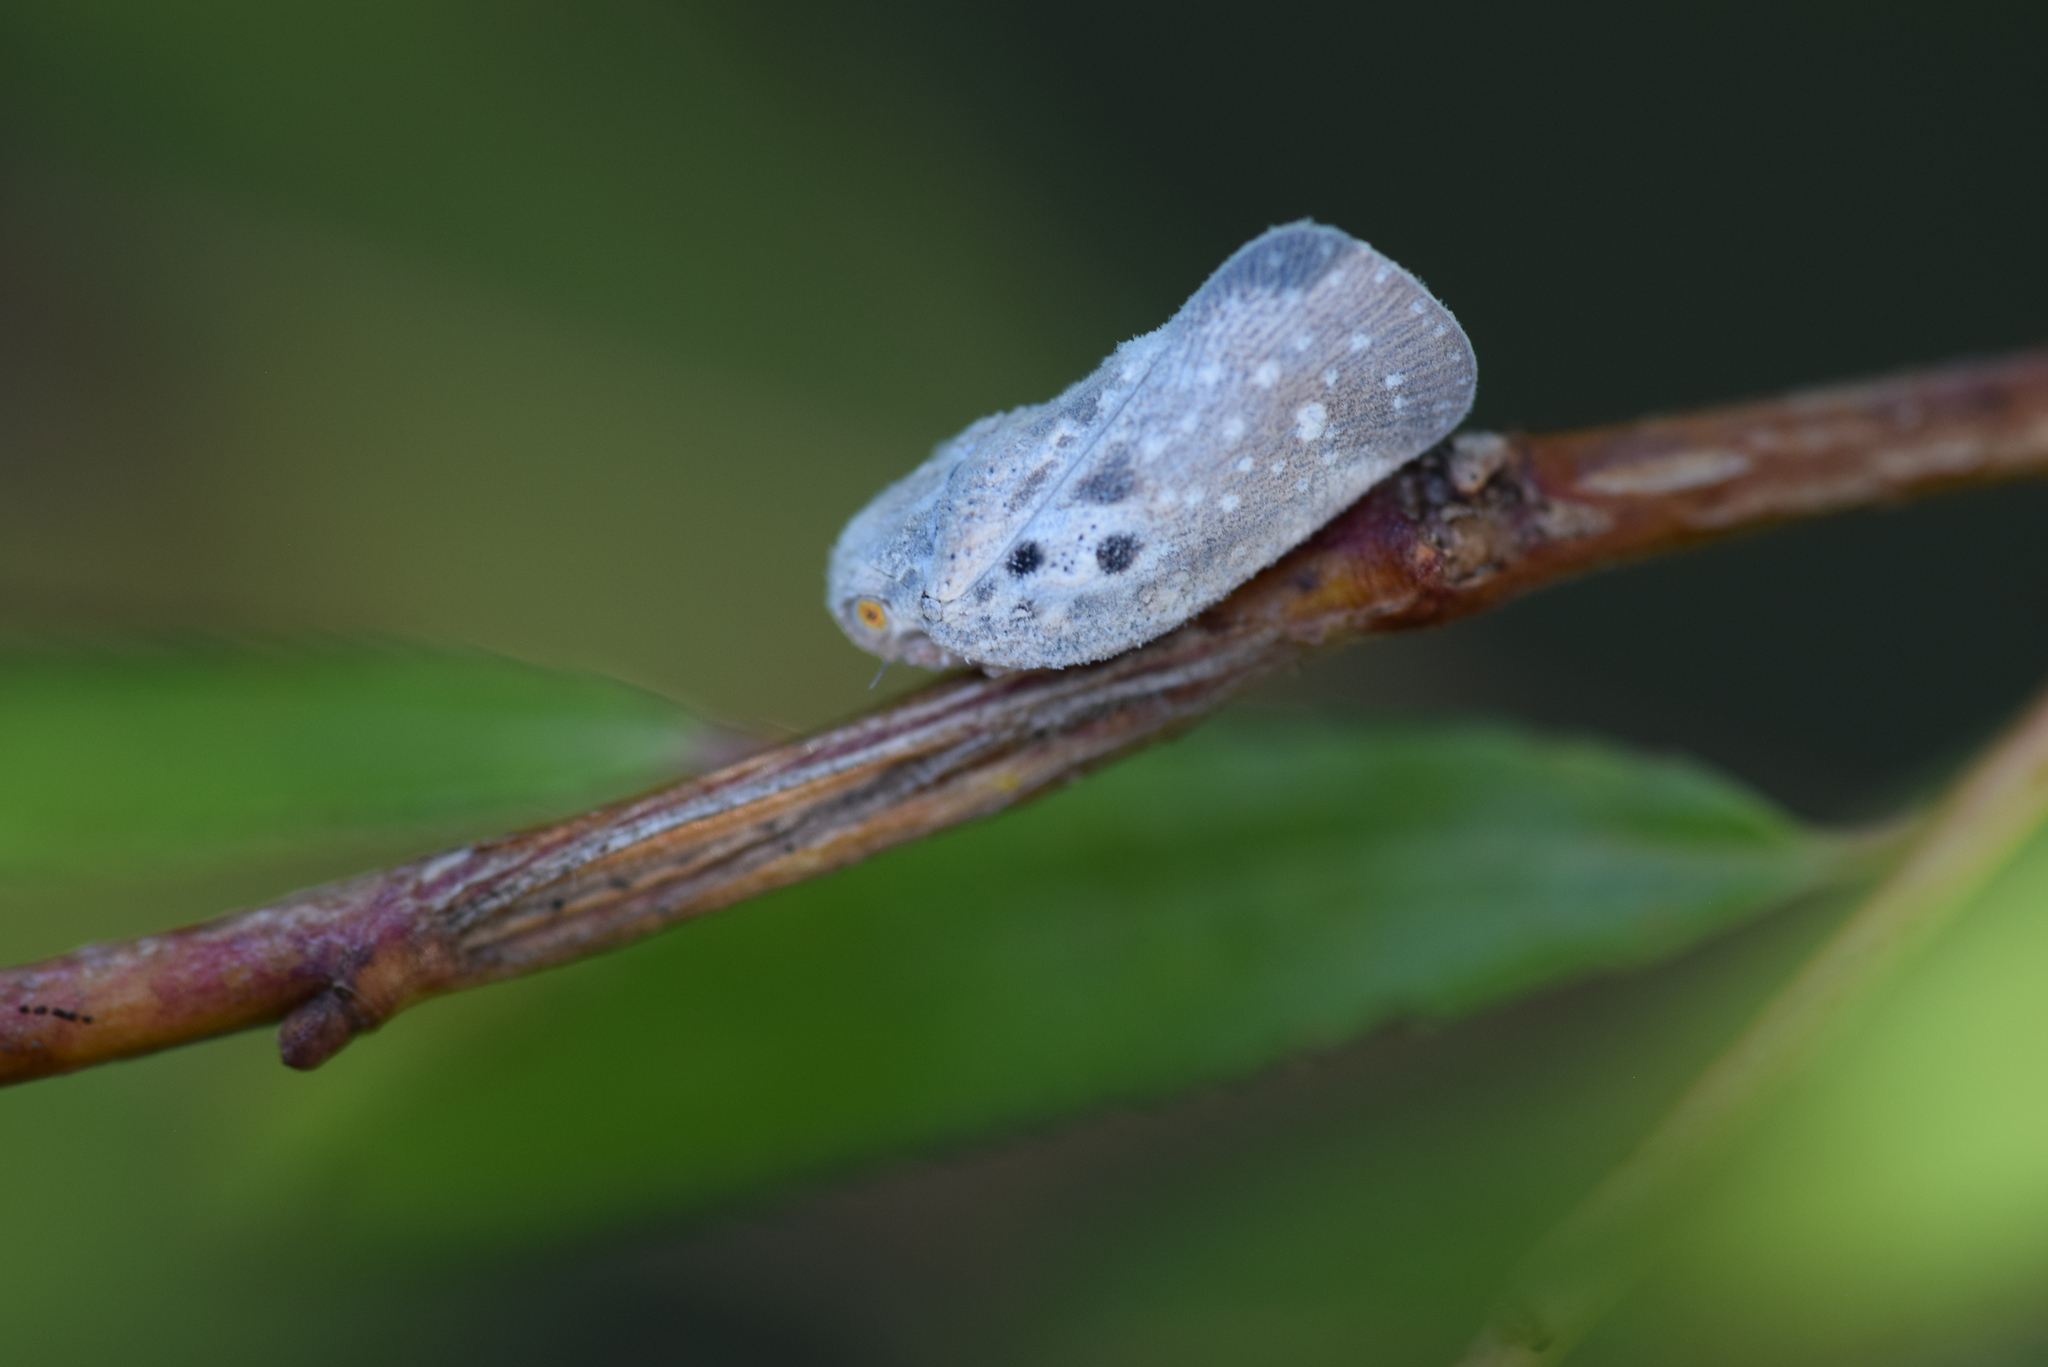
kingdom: Animalia
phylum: Arthropoda
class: Insecta
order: Hemiptera
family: Flatidae
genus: Metcalfa
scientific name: Metcalfa pruinosa
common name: Citrus flatid planthopper
